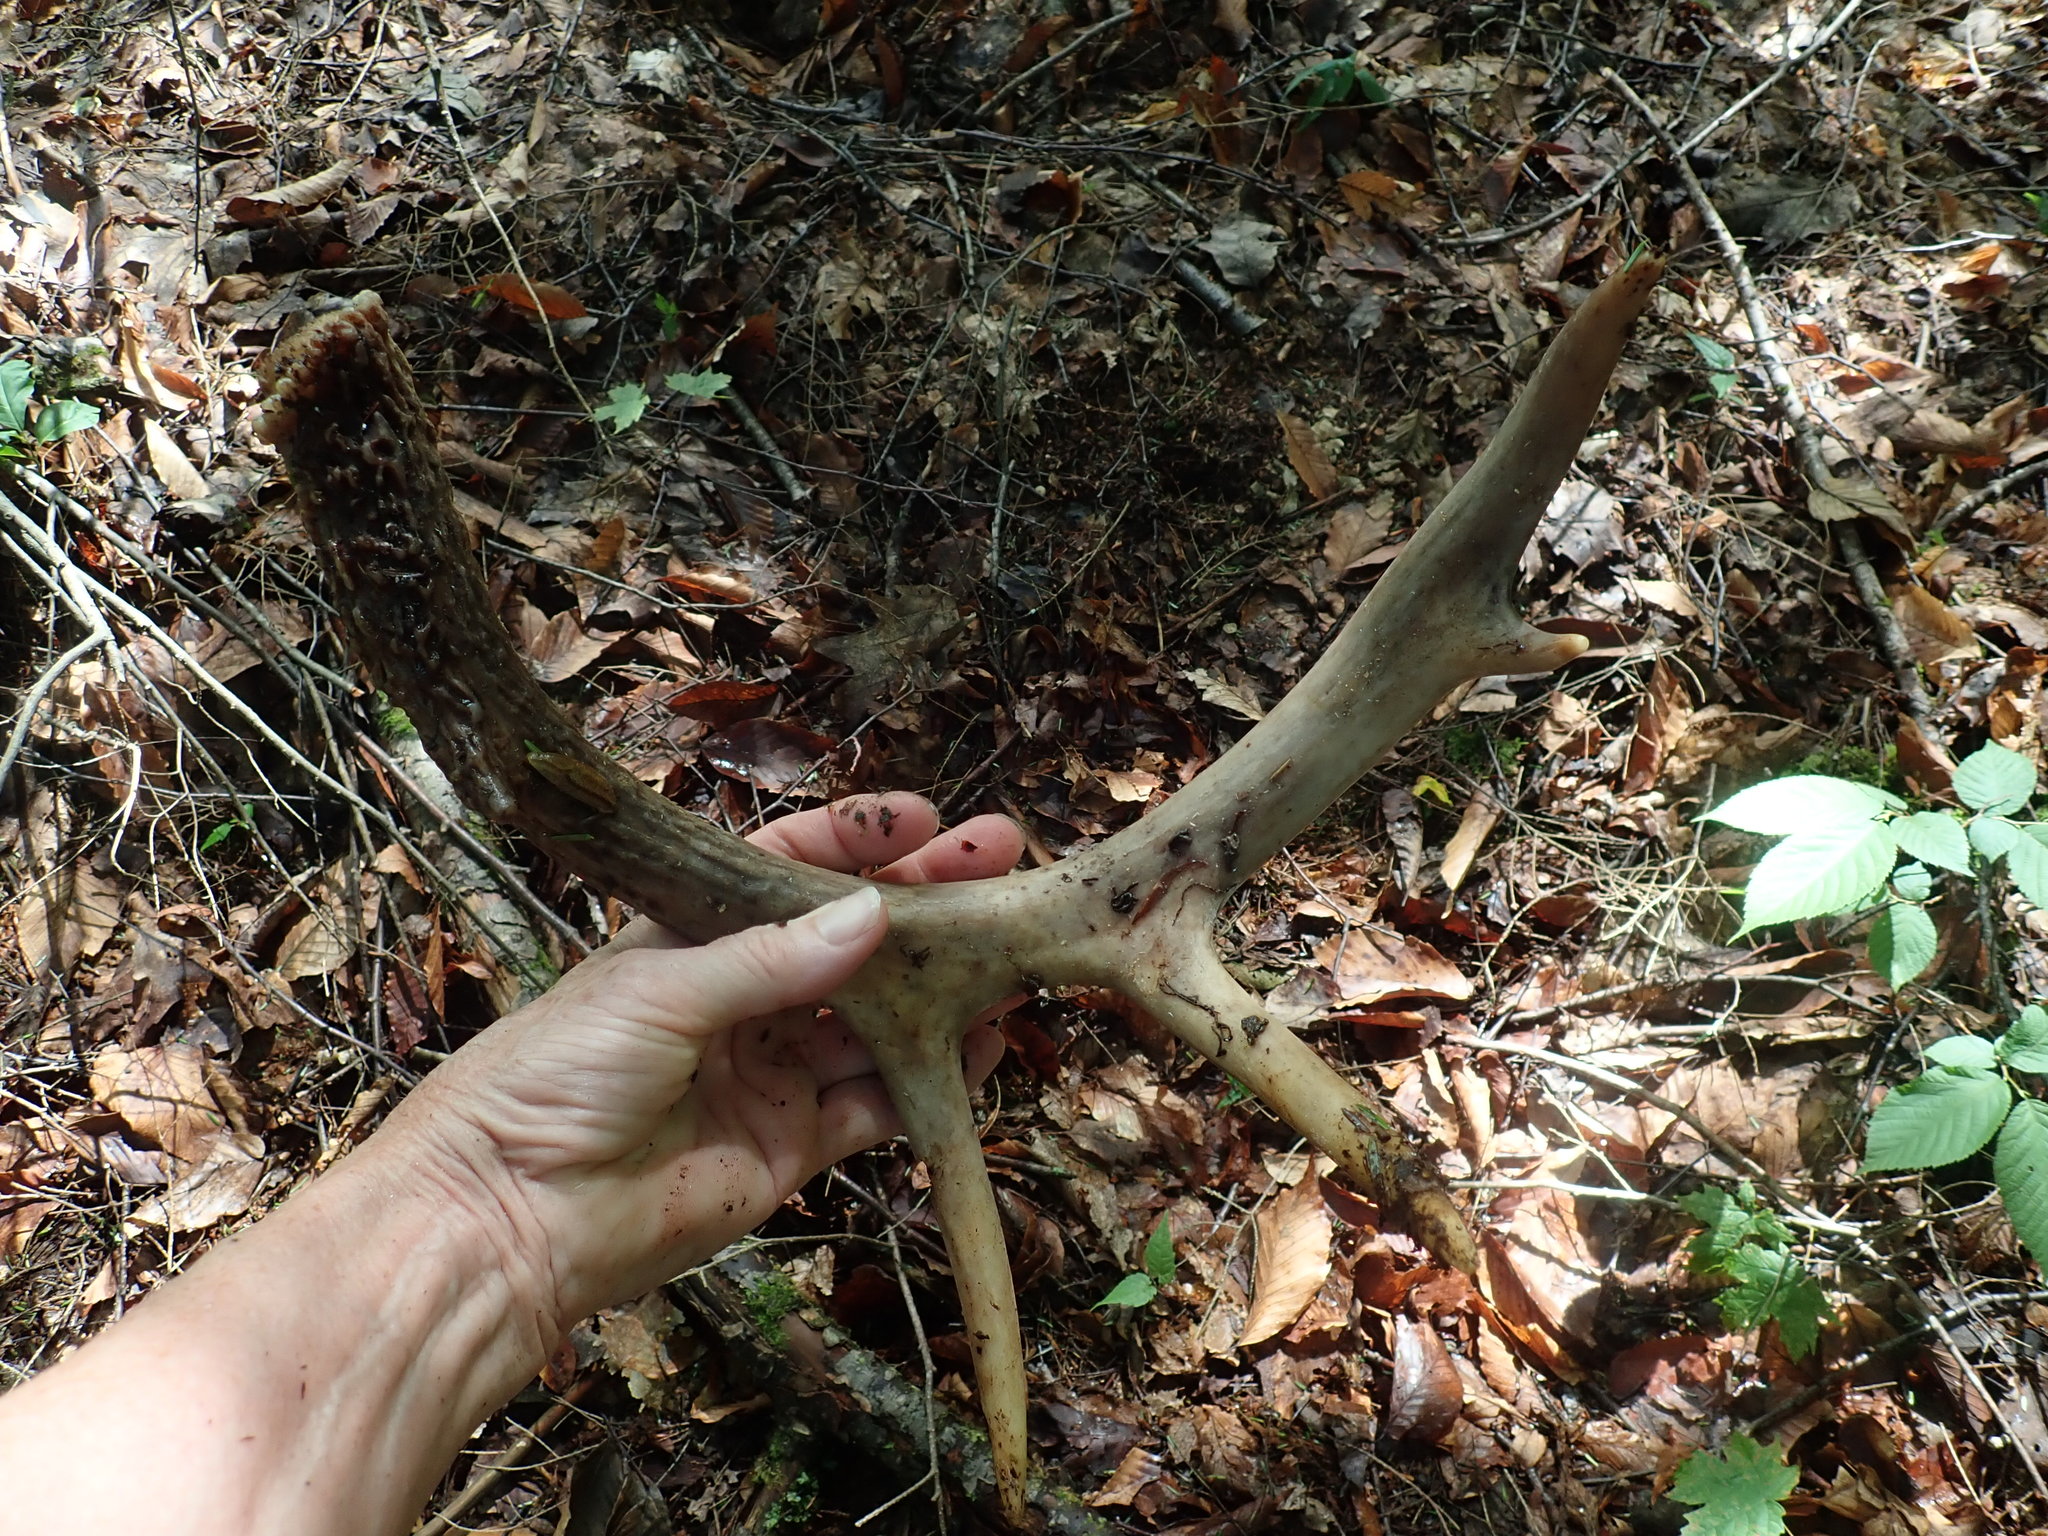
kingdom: Animalia
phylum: Chordata
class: Mammalia
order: Artiodactyla
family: Cervidae
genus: Odocoileus
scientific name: Odocoileus virginianus
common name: White-tailed deer
